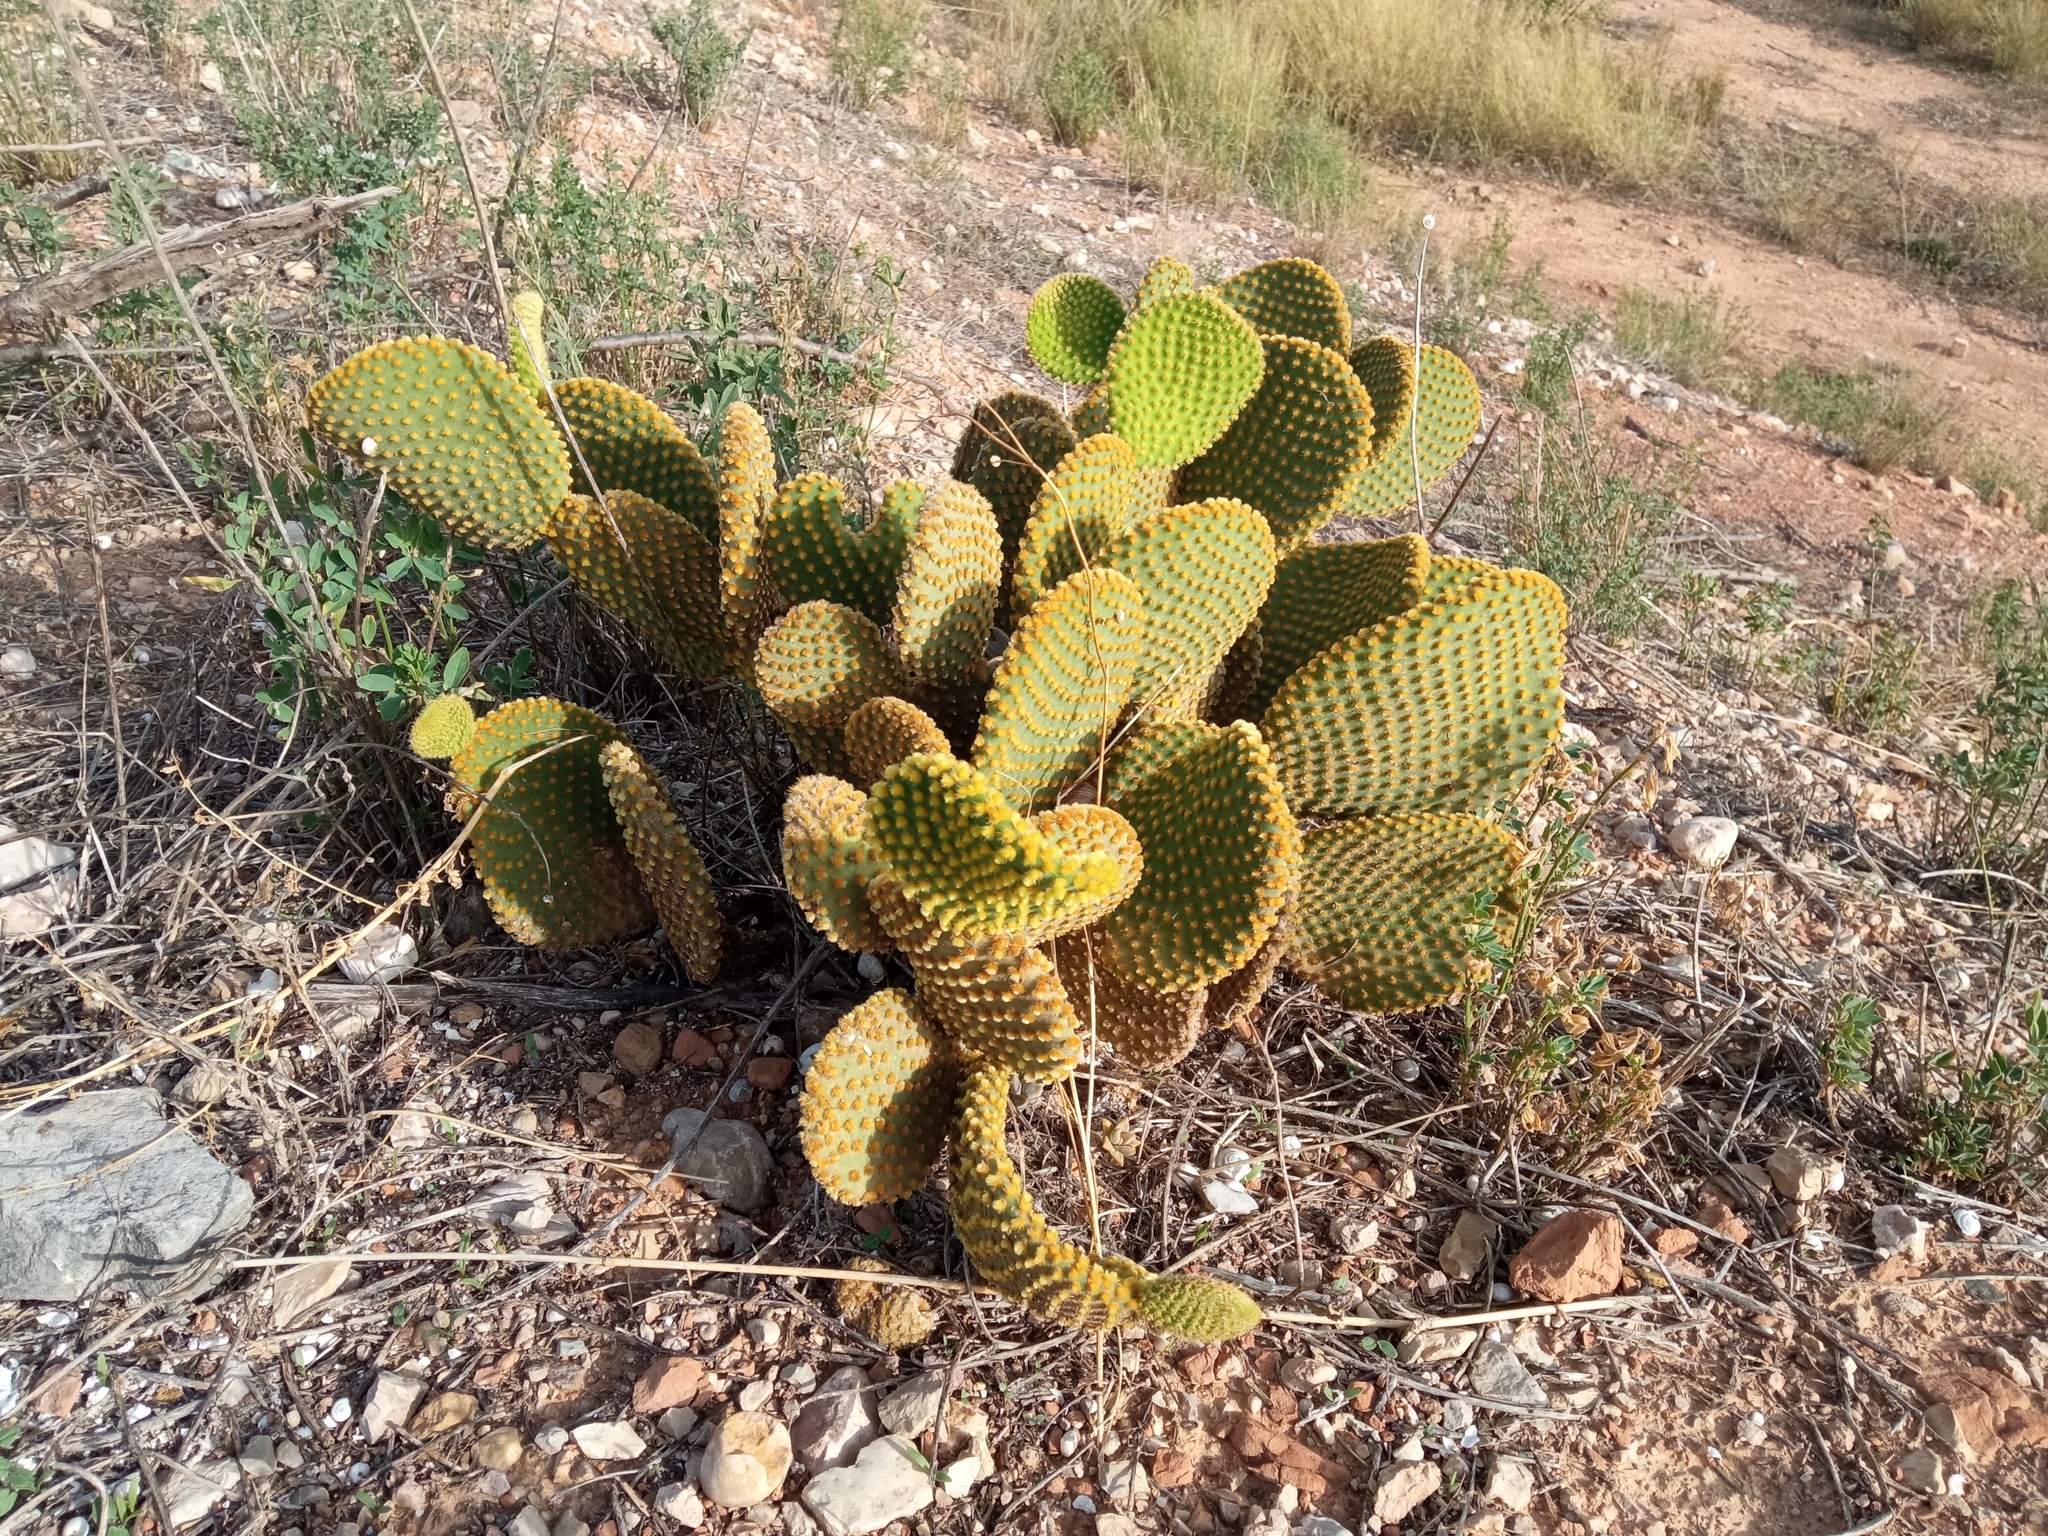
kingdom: Plantae
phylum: Tracheophyta
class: Magnoliopsida
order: Caryophyllales
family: Cactaceae
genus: Opuntia
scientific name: Opuntia microdasys
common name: Angel's-wings
